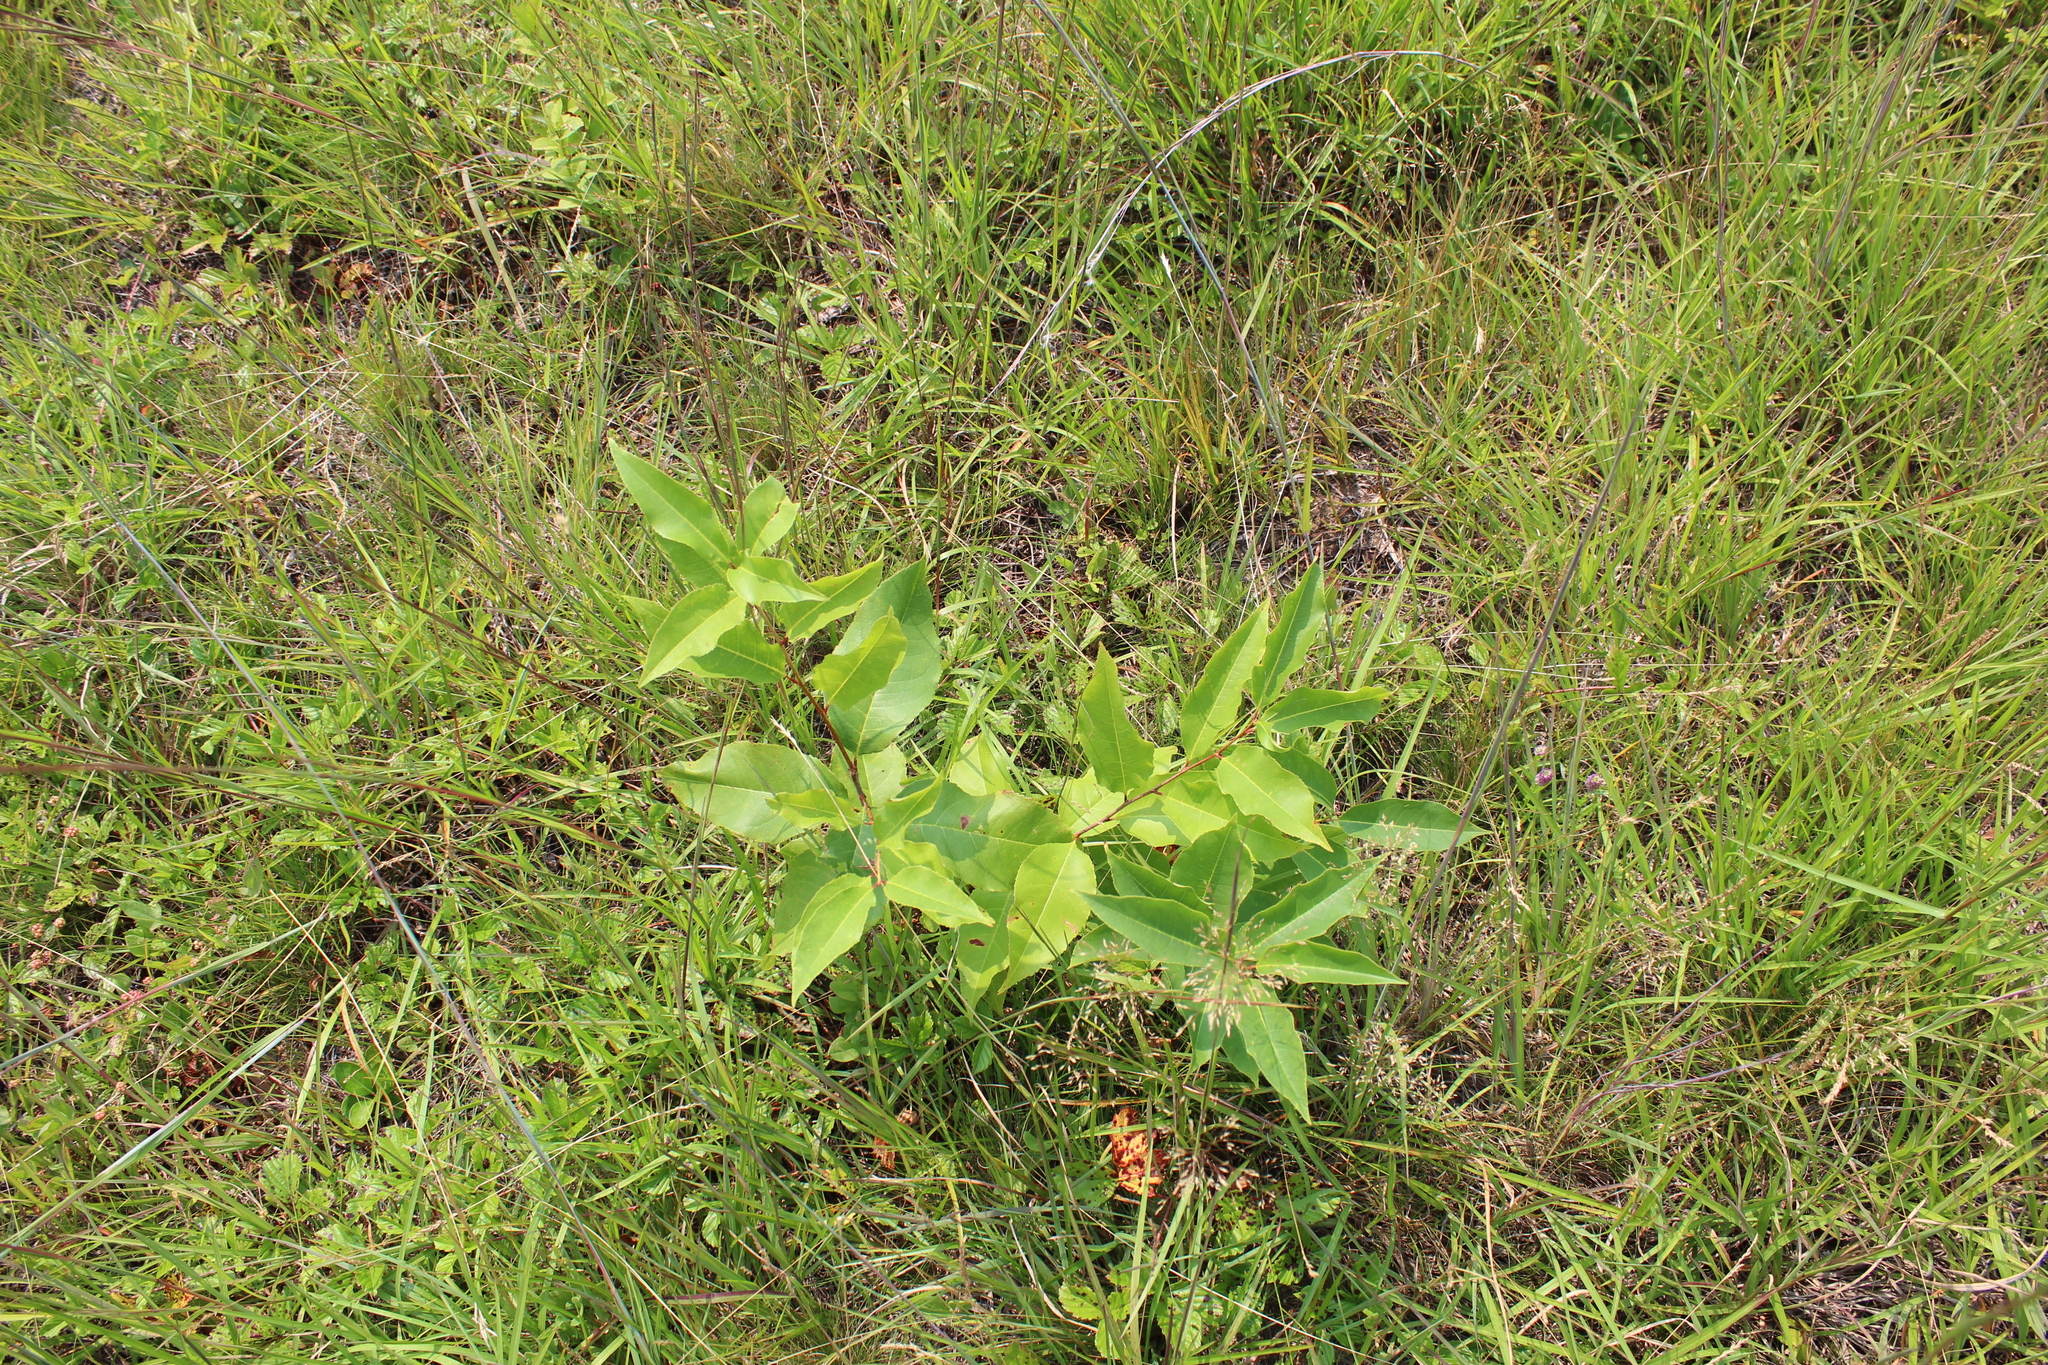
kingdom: Plantae
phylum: Tracheophyta
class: Magnoliopsida
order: Rosales
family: Rosaceae
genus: Prunus
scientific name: Prunus serotina
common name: Black cherry
